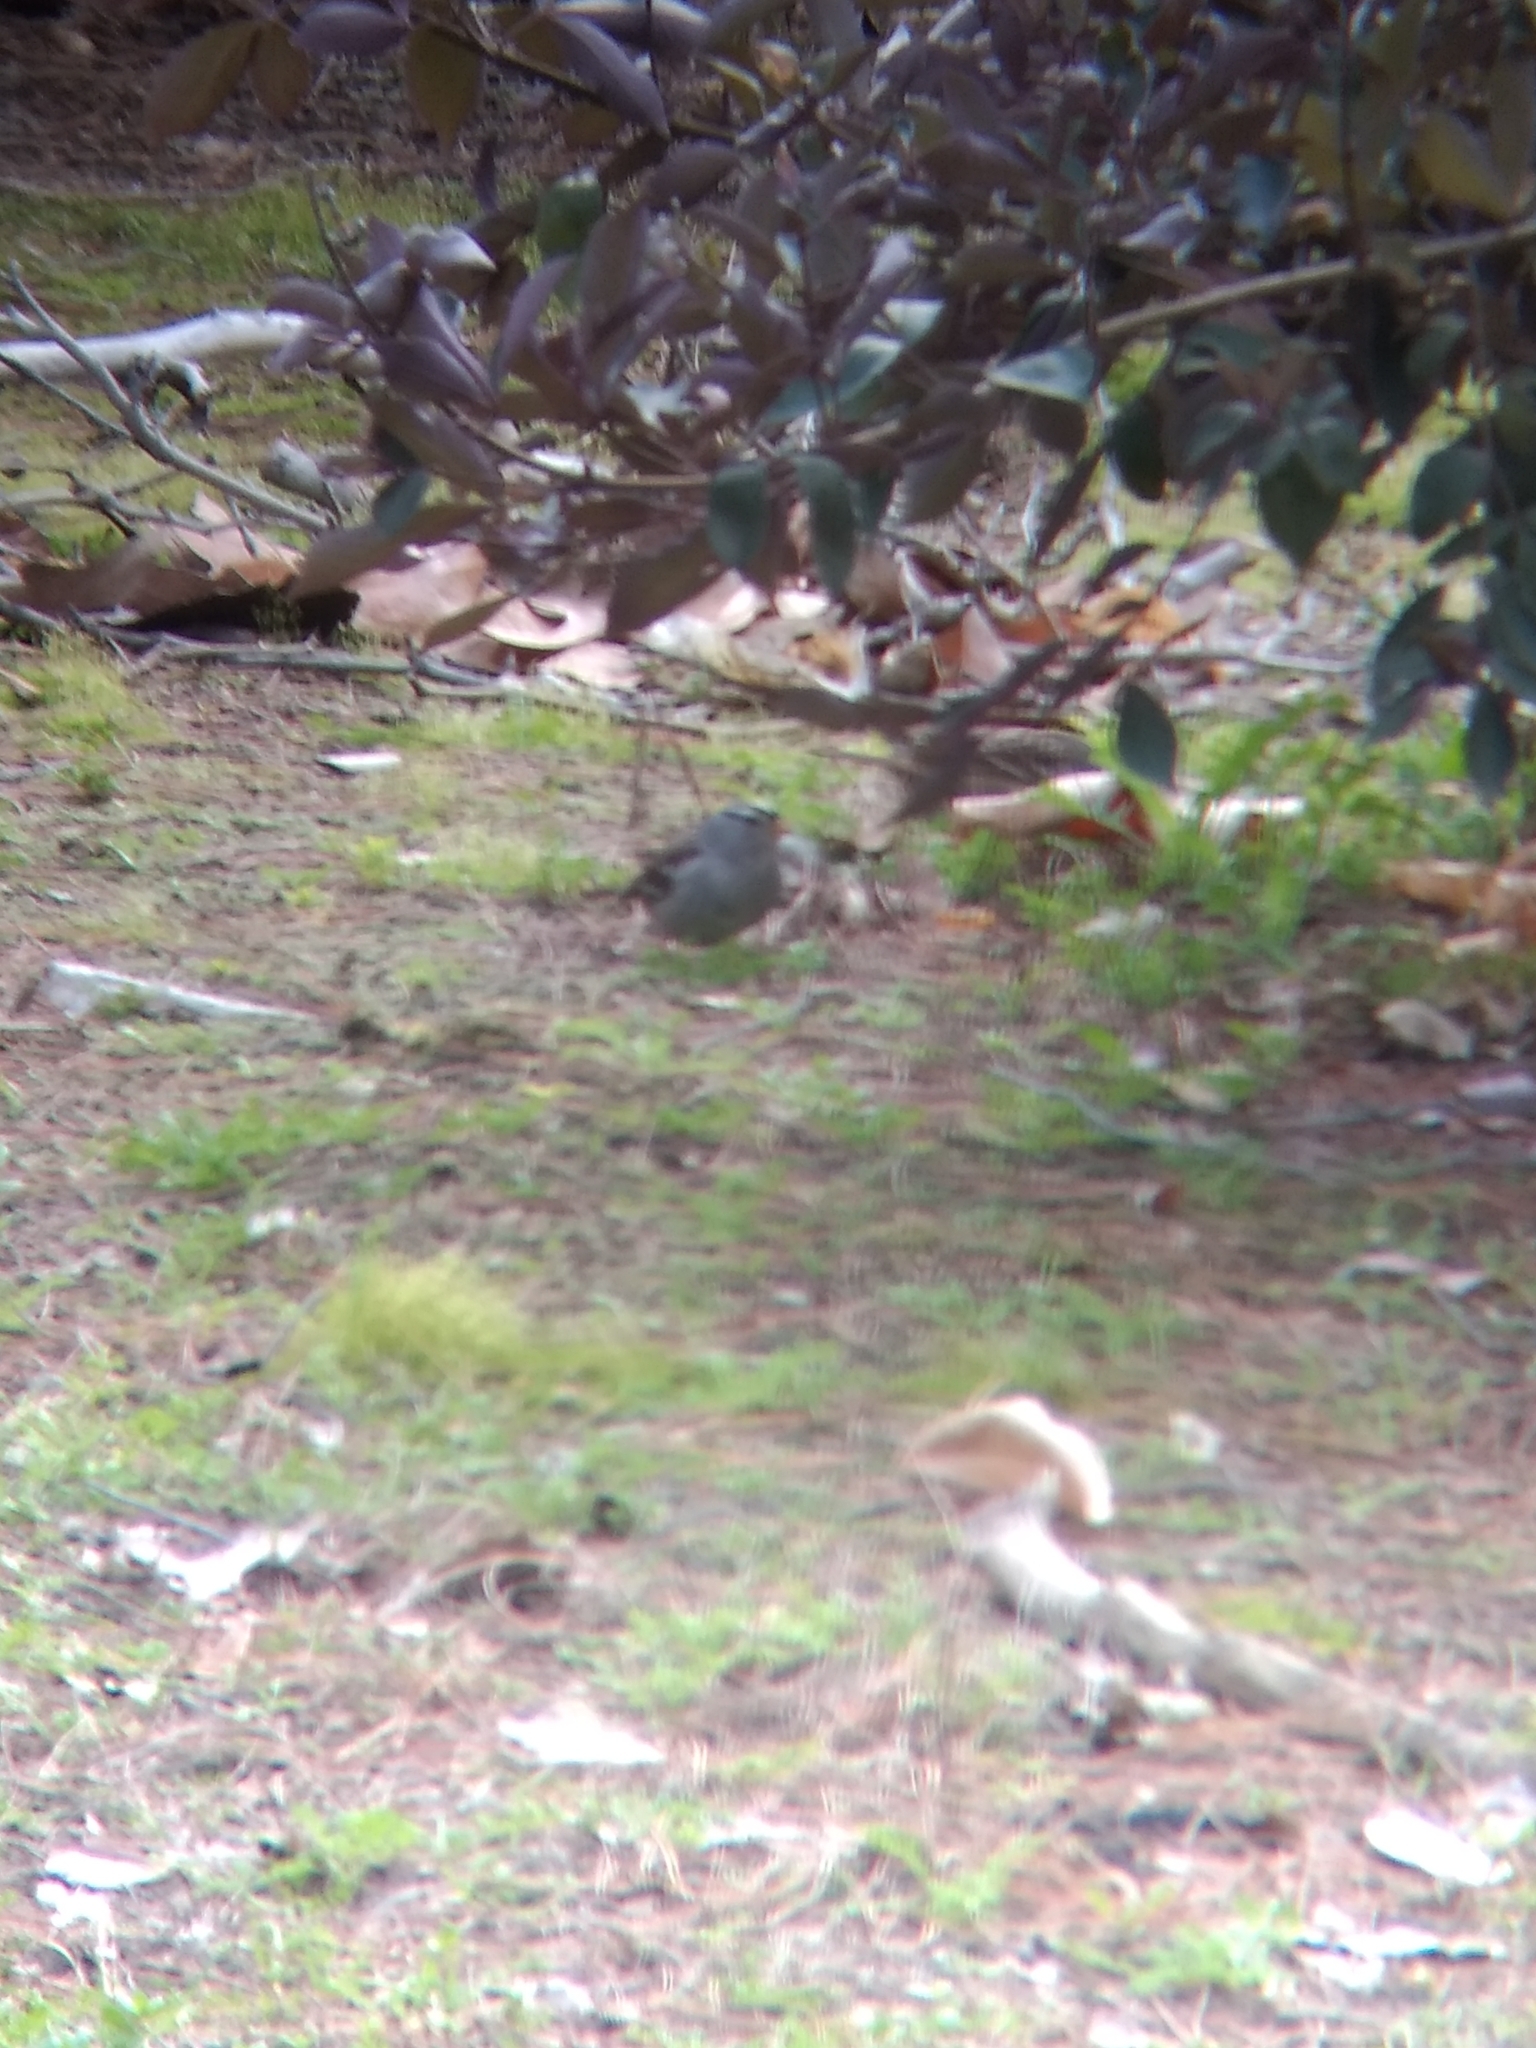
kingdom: Animalia
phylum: Chordata
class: Aves
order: Passeriformes
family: Passerellidae
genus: Zonotrichia
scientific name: Zonotrichia leucophrys
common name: White-crowned sparrow
